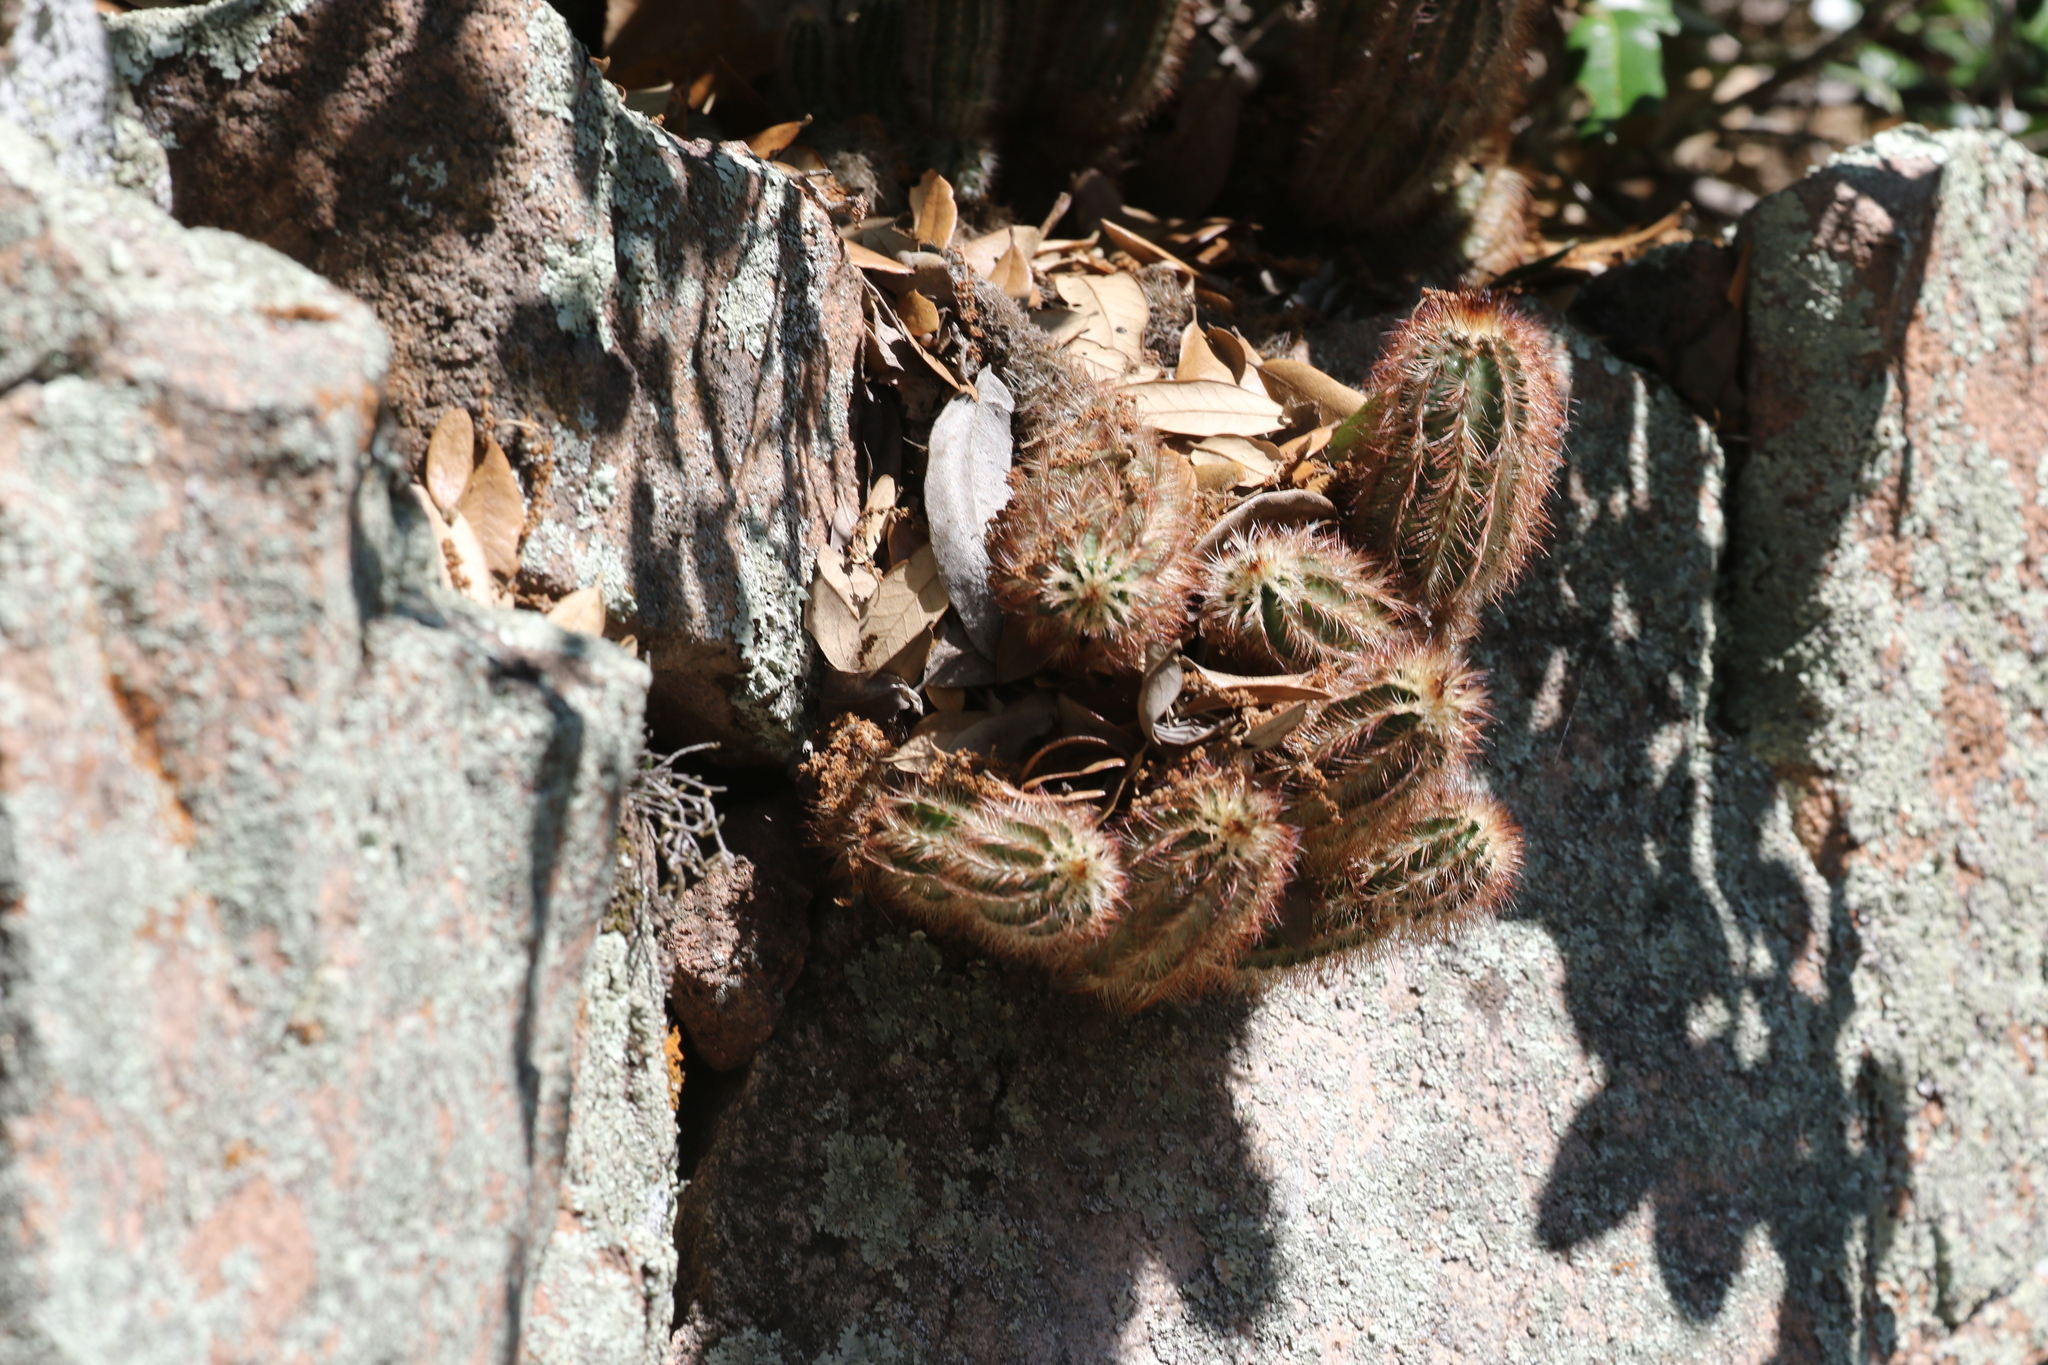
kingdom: Plantae
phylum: Tracheophyta
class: Magnoliopsida
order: Caryophyllales
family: Cactaceae
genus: Echinocereus
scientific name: Echinocereus reichenbachii
